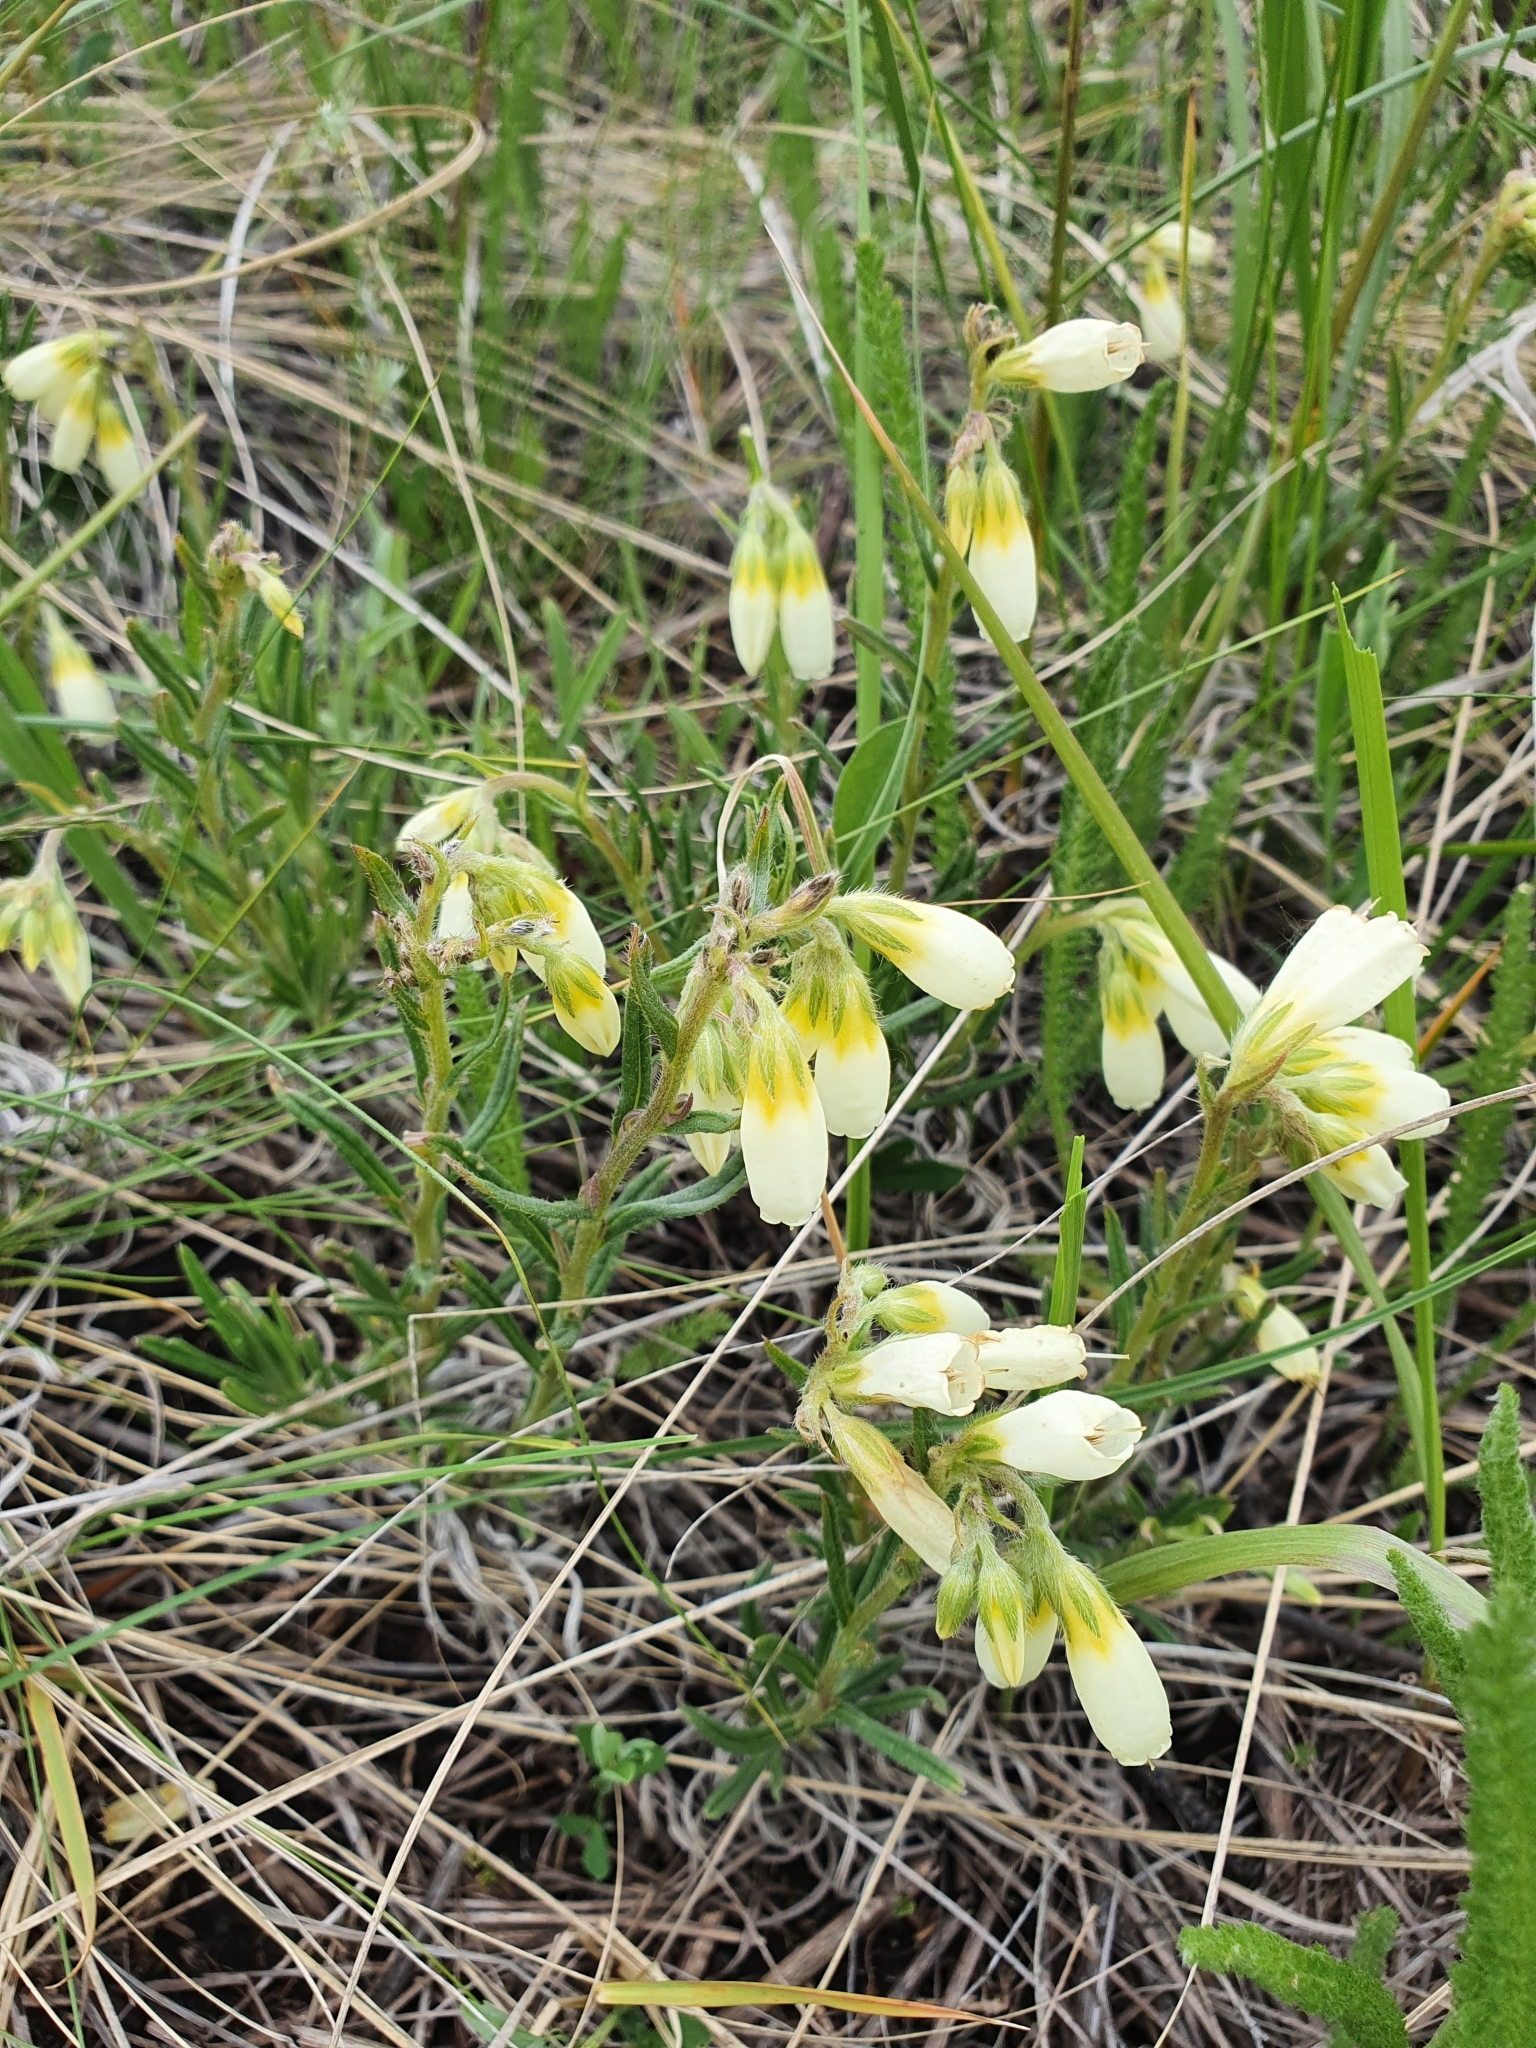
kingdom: Plantae
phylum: Tracheophyta
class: Magnoliopsida
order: Boraginales
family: Boraginaceae
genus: Onosma
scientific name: Onosma simplicissima
